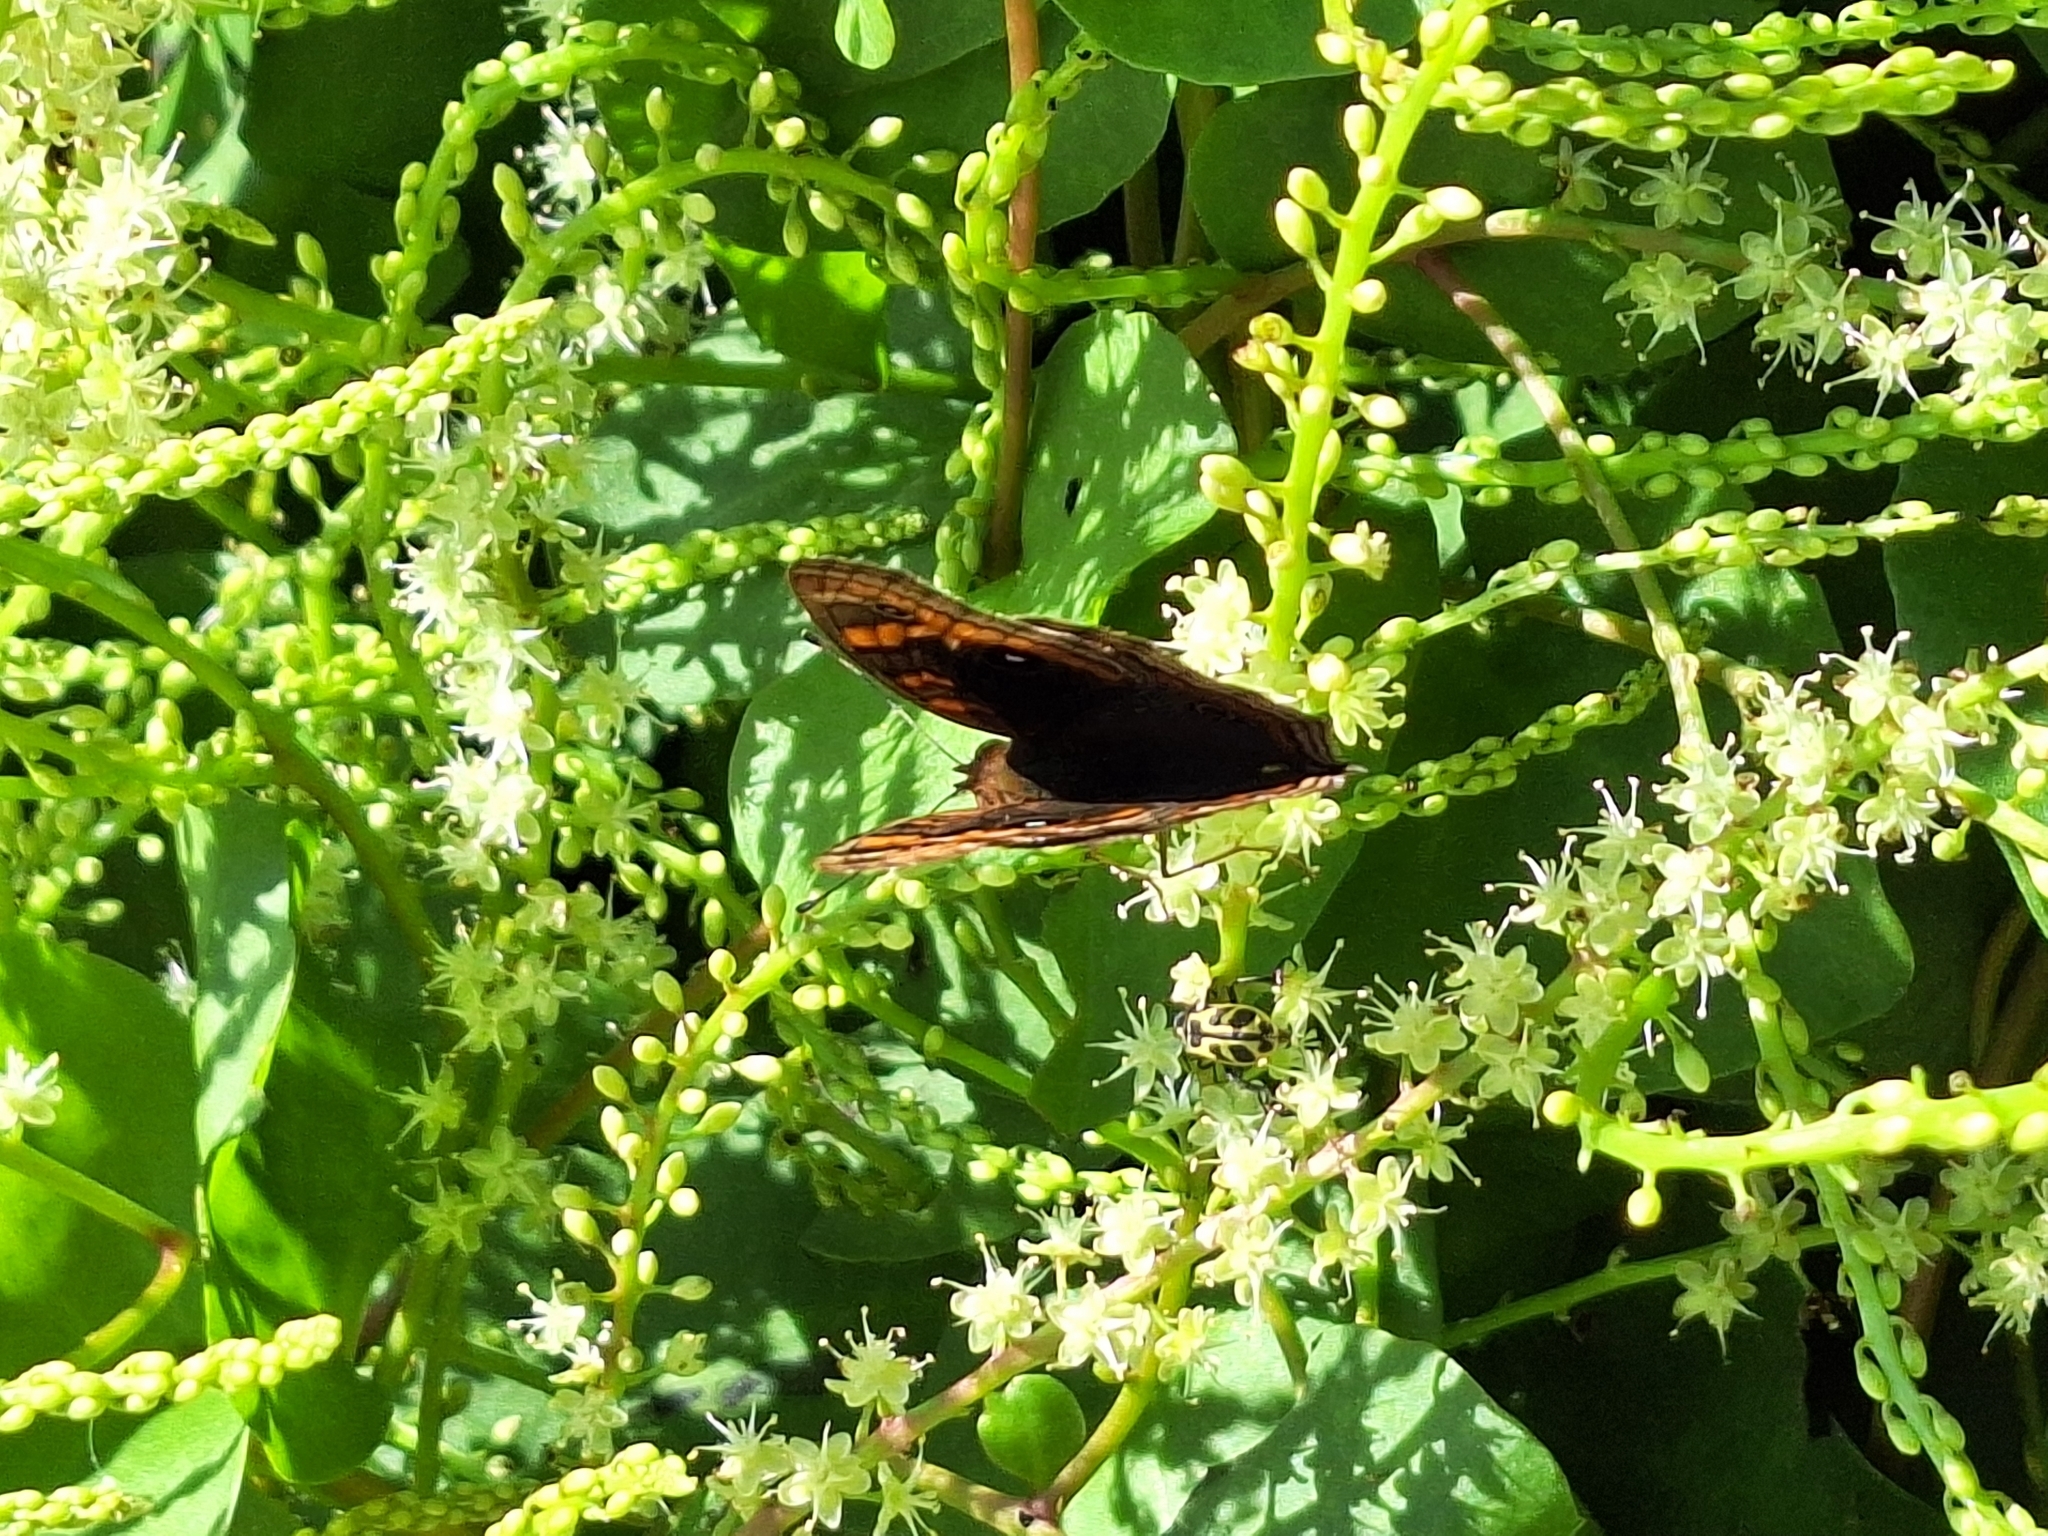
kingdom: Animalia
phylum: Arthropoda
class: Insecta
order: Lepidoptera
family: Nymphalidae
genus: Junonia
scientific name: Junonia lavinia
